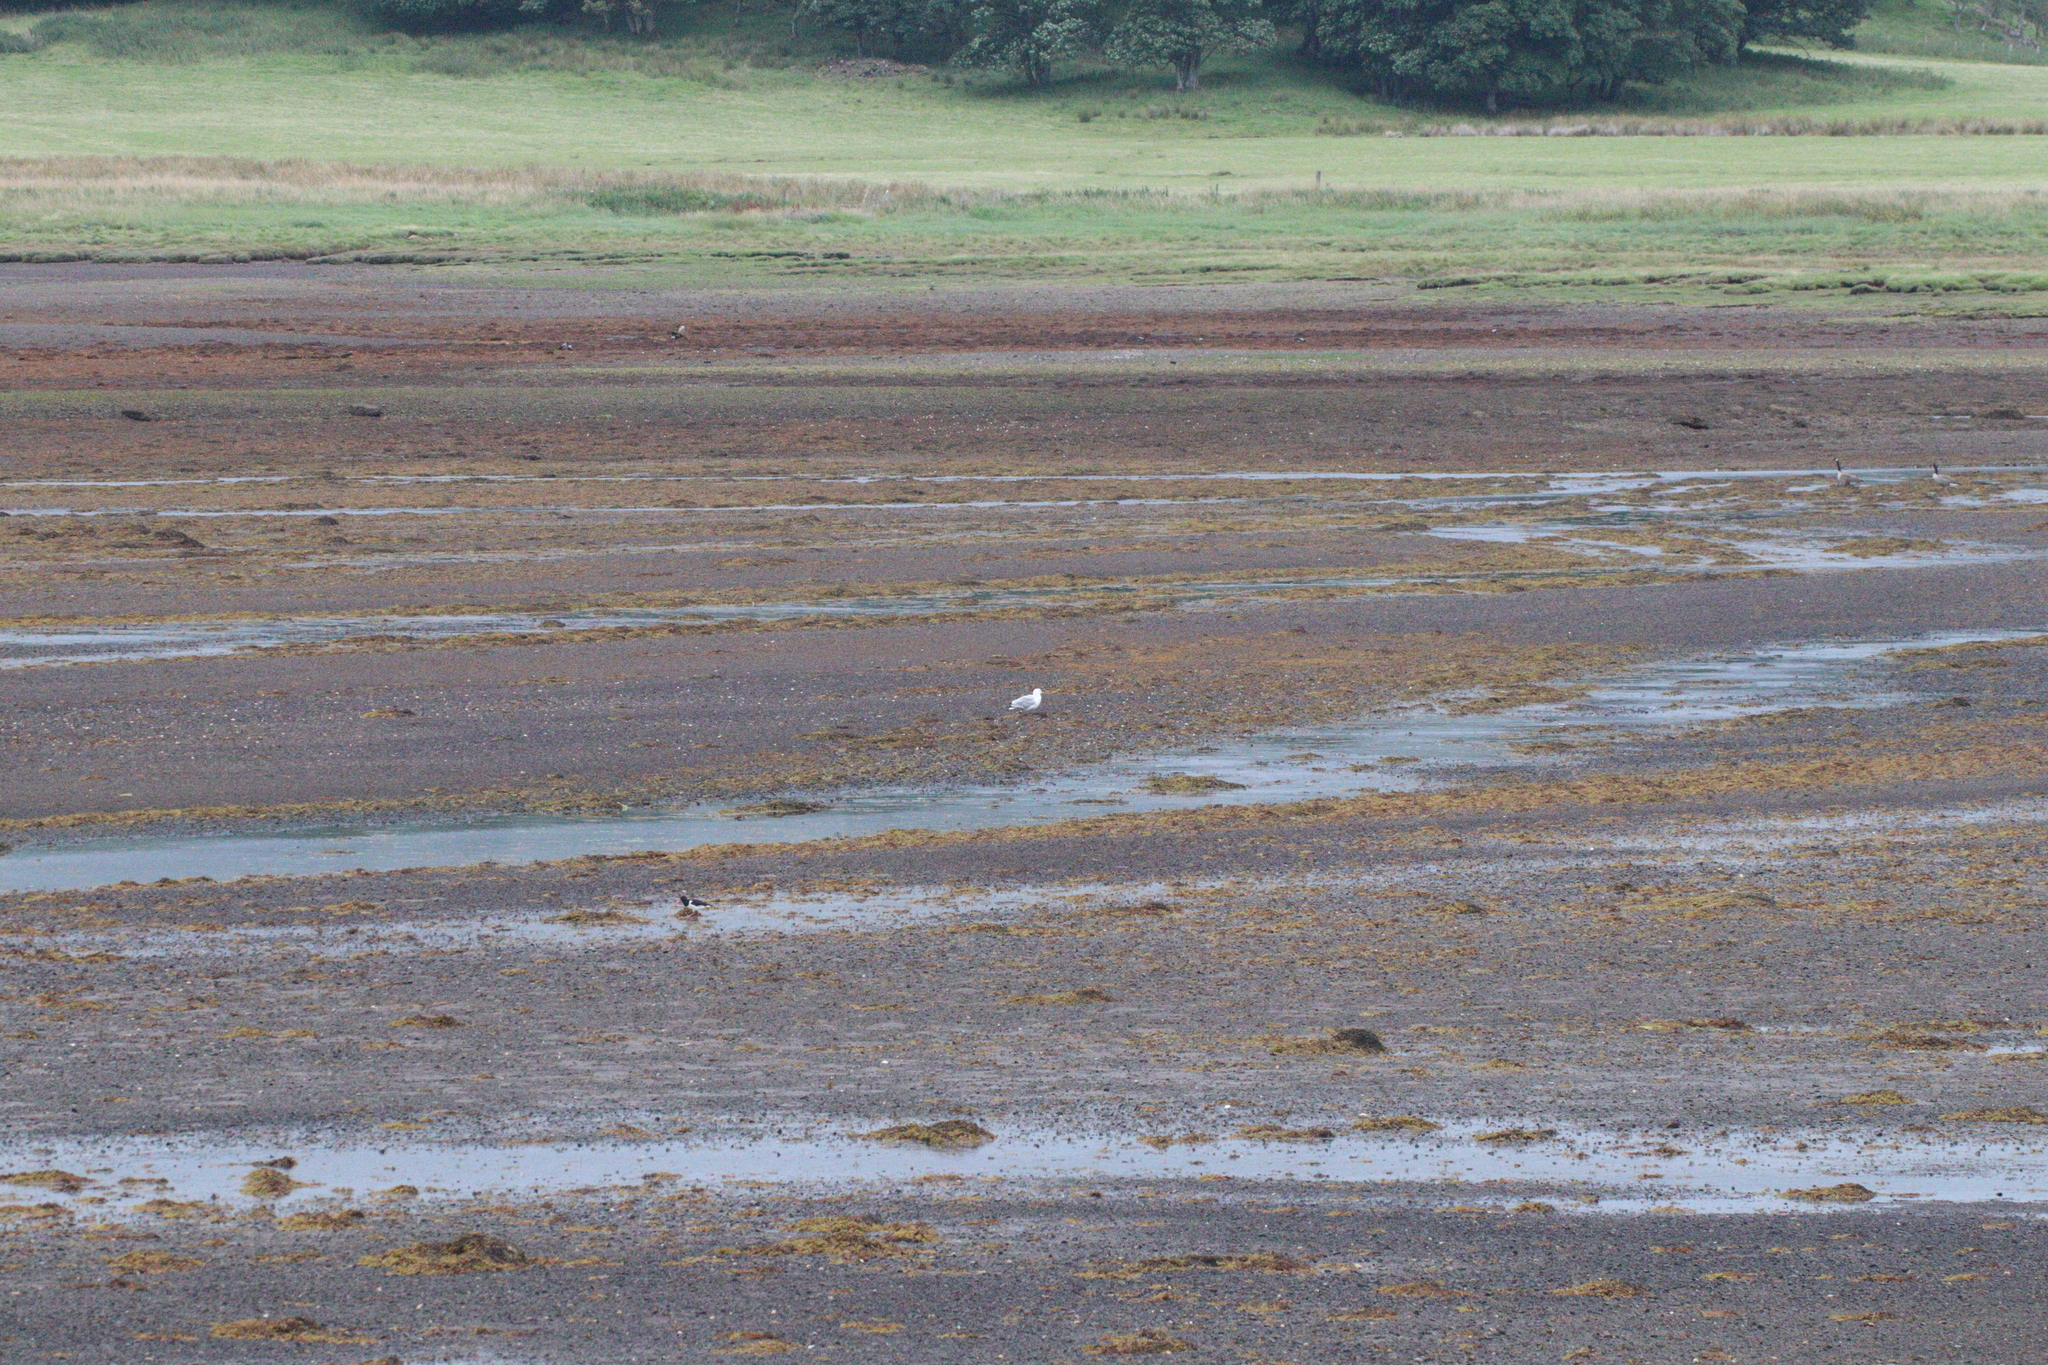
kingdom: Animalia
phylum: Chordata
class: Aves
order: Charadriiformes
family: Haematopodidae
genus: Haematopus
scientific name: Haematopus ostralegus
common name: Eurasian oystercatcher
